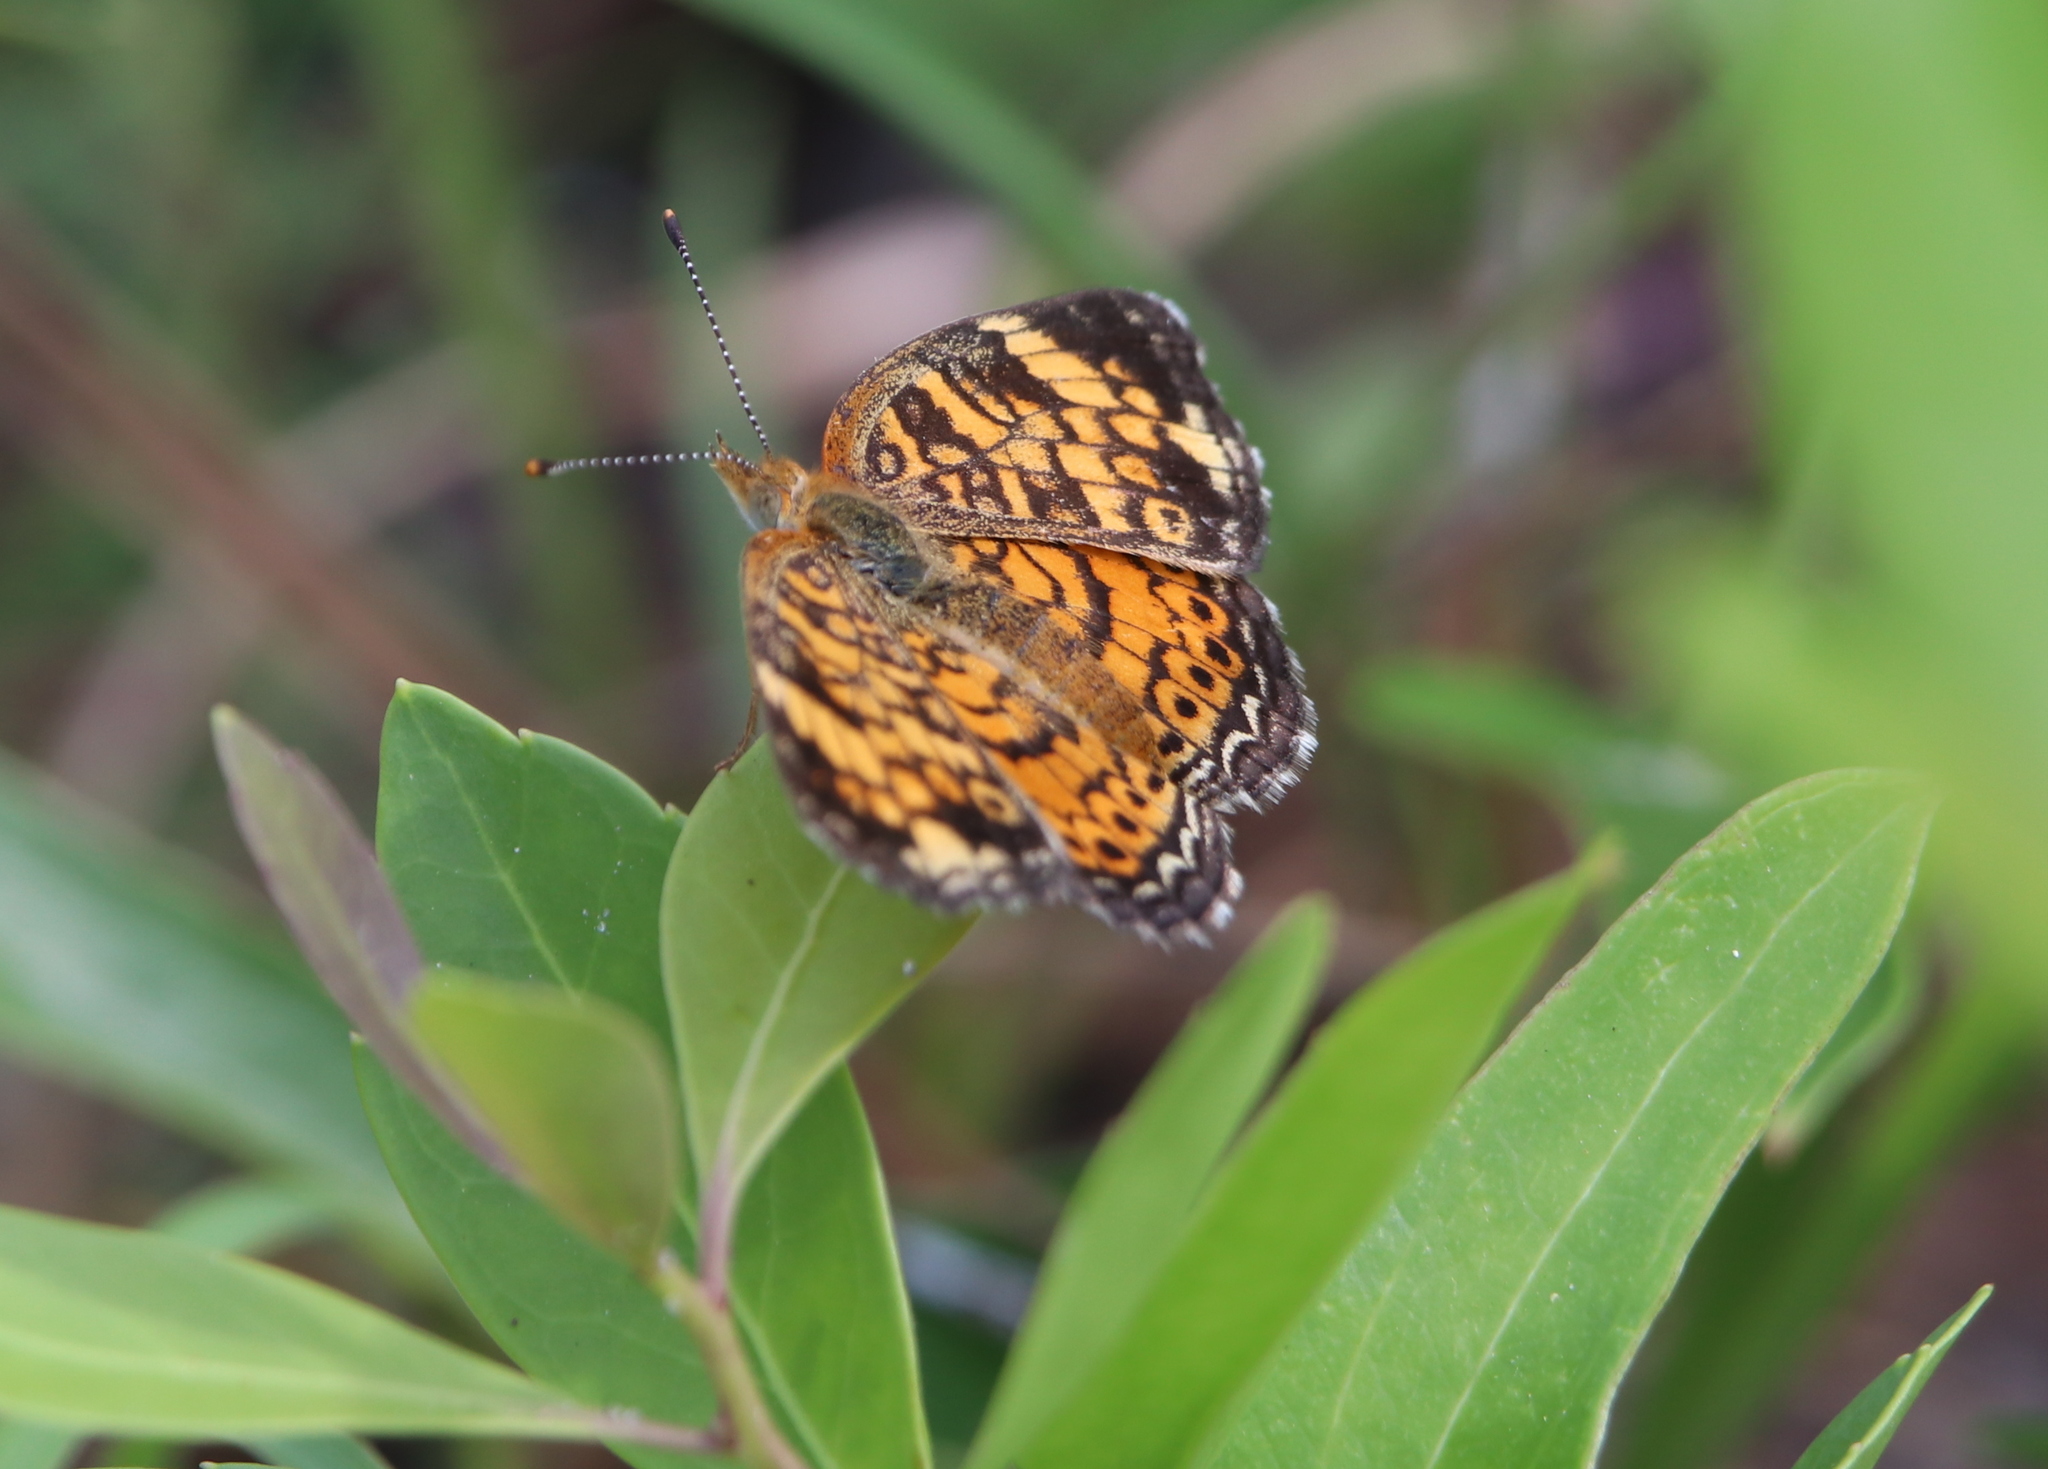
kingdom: Animalia
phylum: Arthropoda
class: Insecta
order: Lepidoptera
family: Nymphalidae
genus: Phyciodes
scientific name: Phyciodes tharos
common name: Pearl crescent
